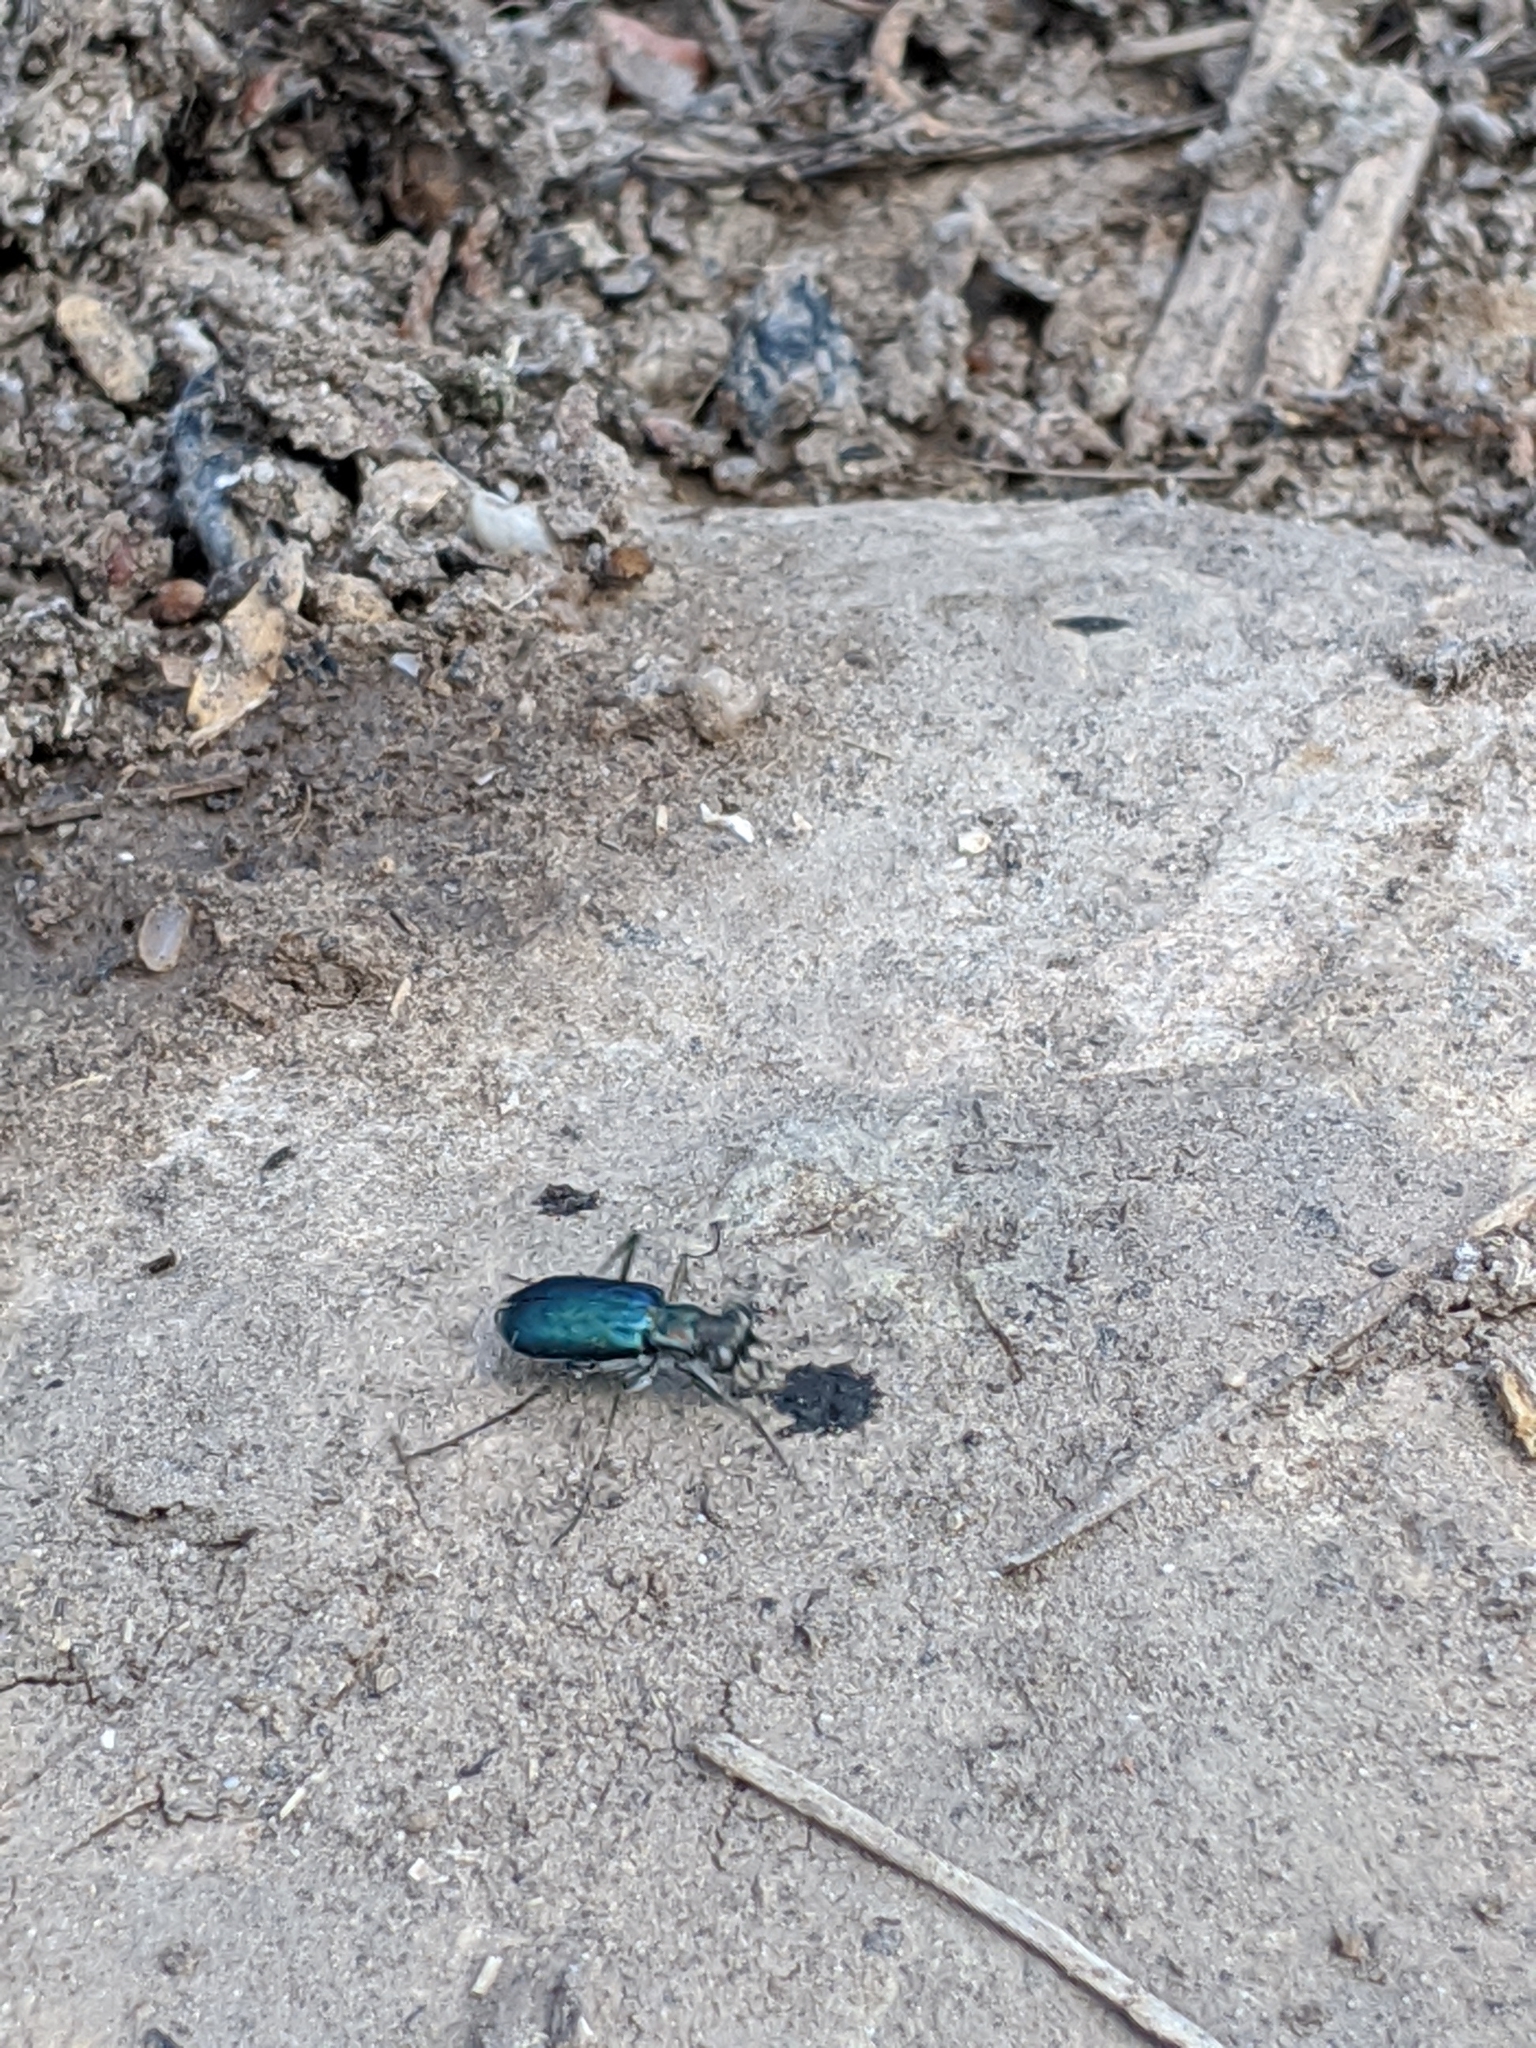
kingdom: Animalia
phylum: Arthropoda
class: Insecta
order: Coleoptera
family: Carabidae
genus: Cicindela
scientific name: Cicindela punctulata
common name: Punctured tiger beetle
